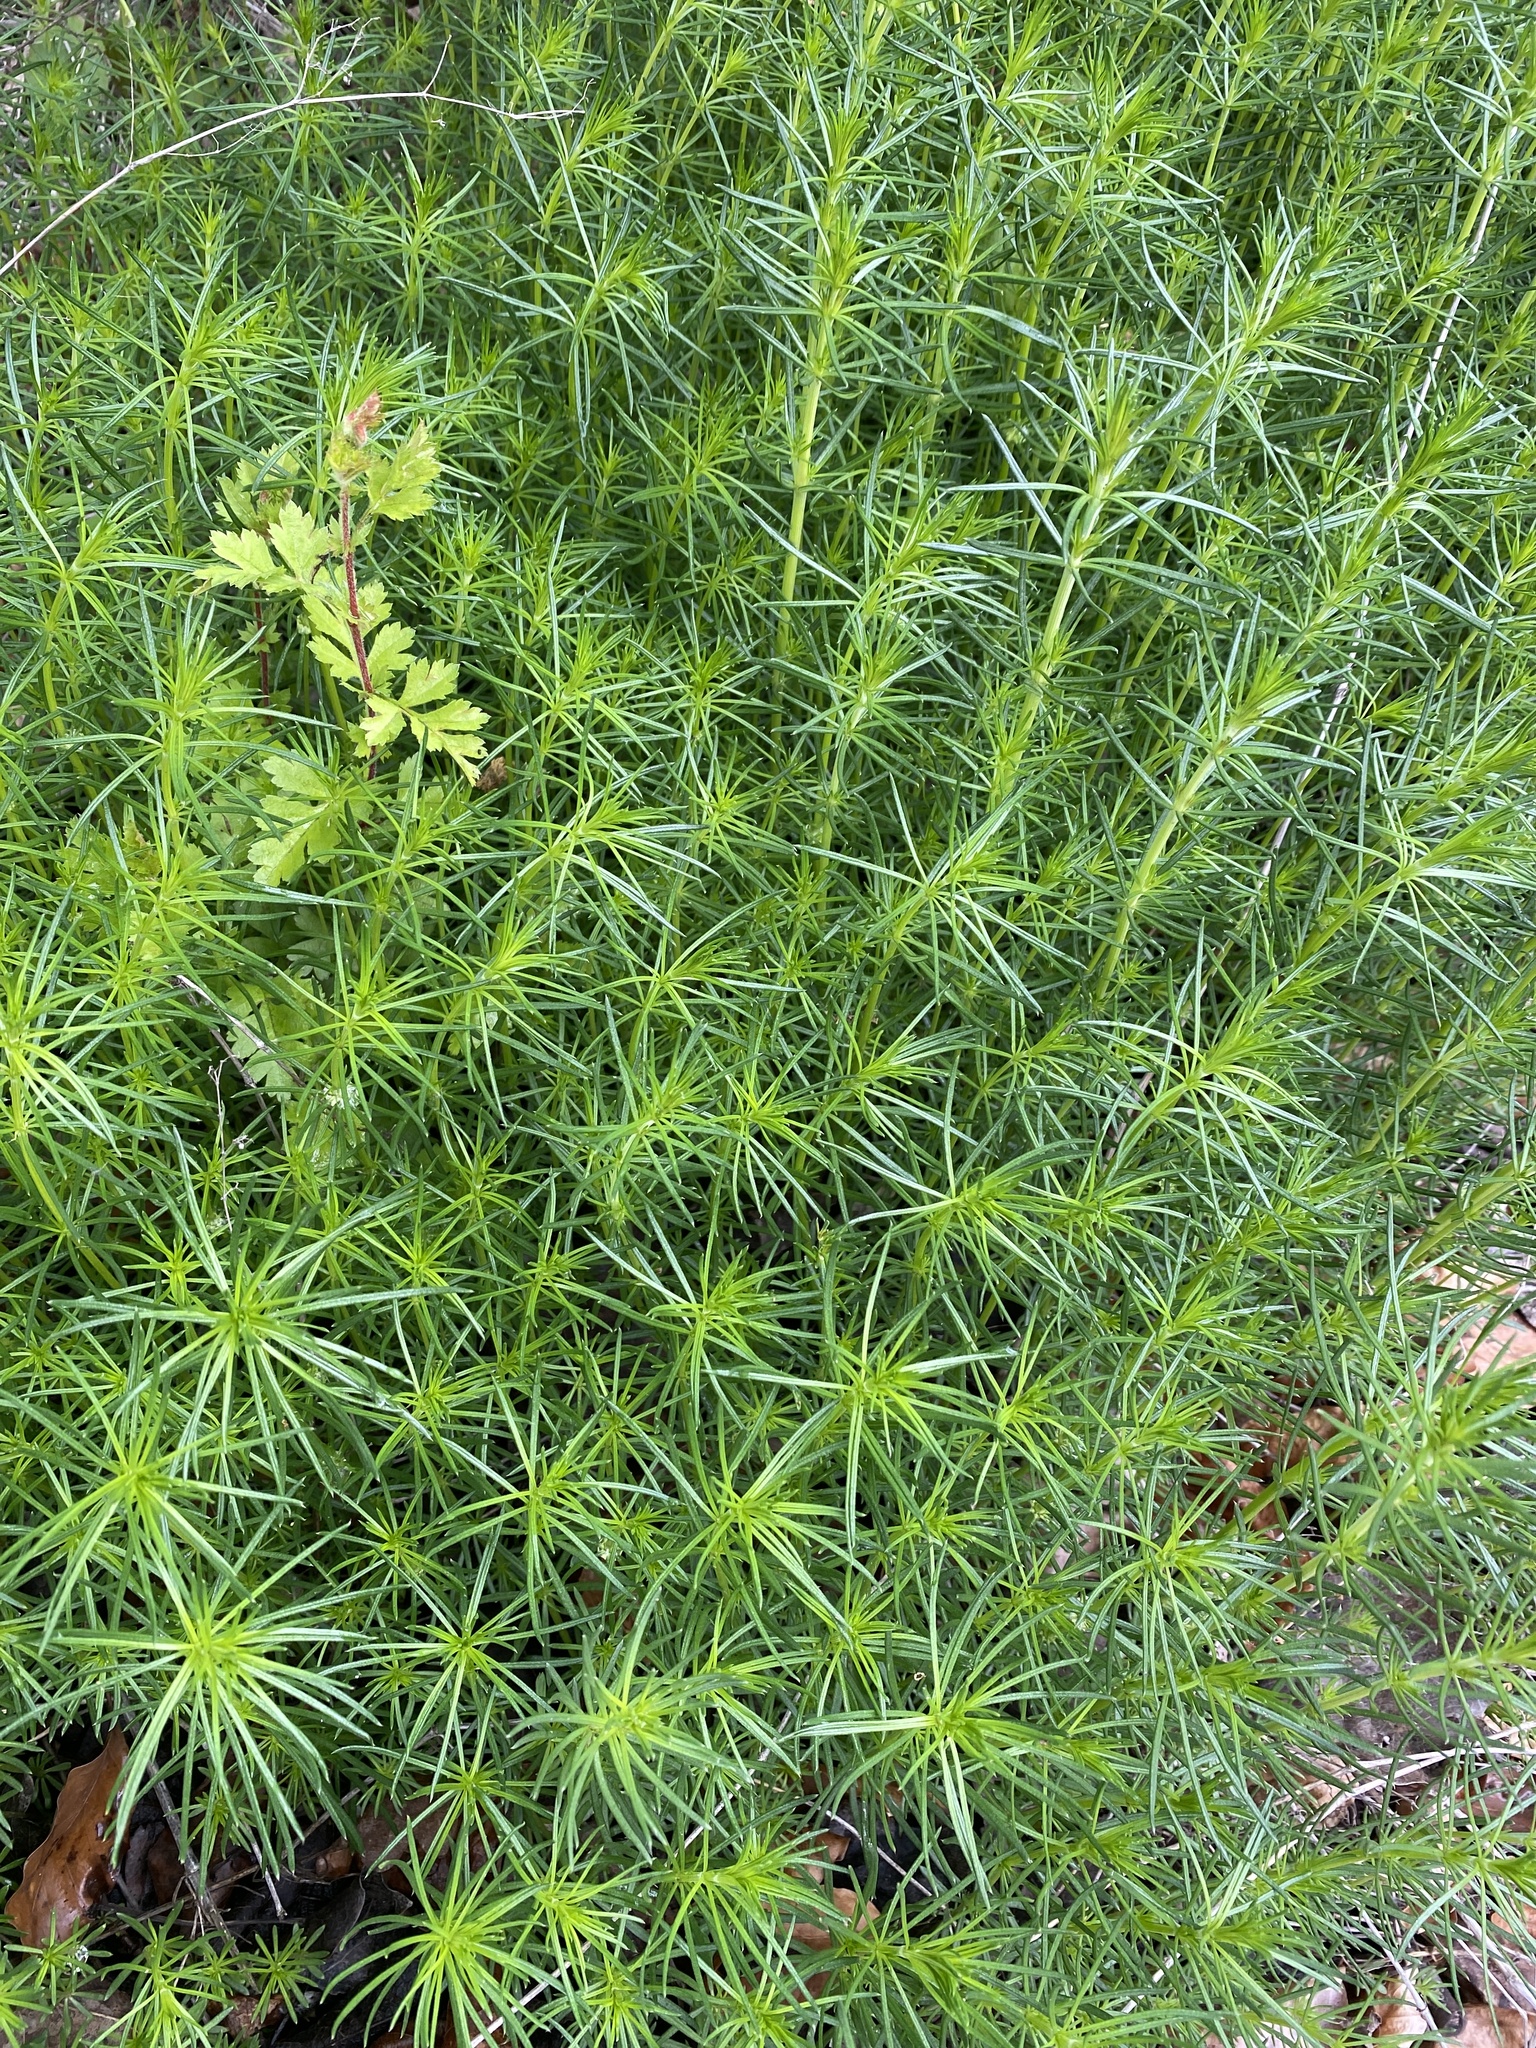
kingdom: Plantae
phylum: Tracheophyta
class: Magnoliopsida
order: Gentianales
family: Rubiaceae
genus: Galium
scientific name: Galium verum
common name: Lady's bedstraw
